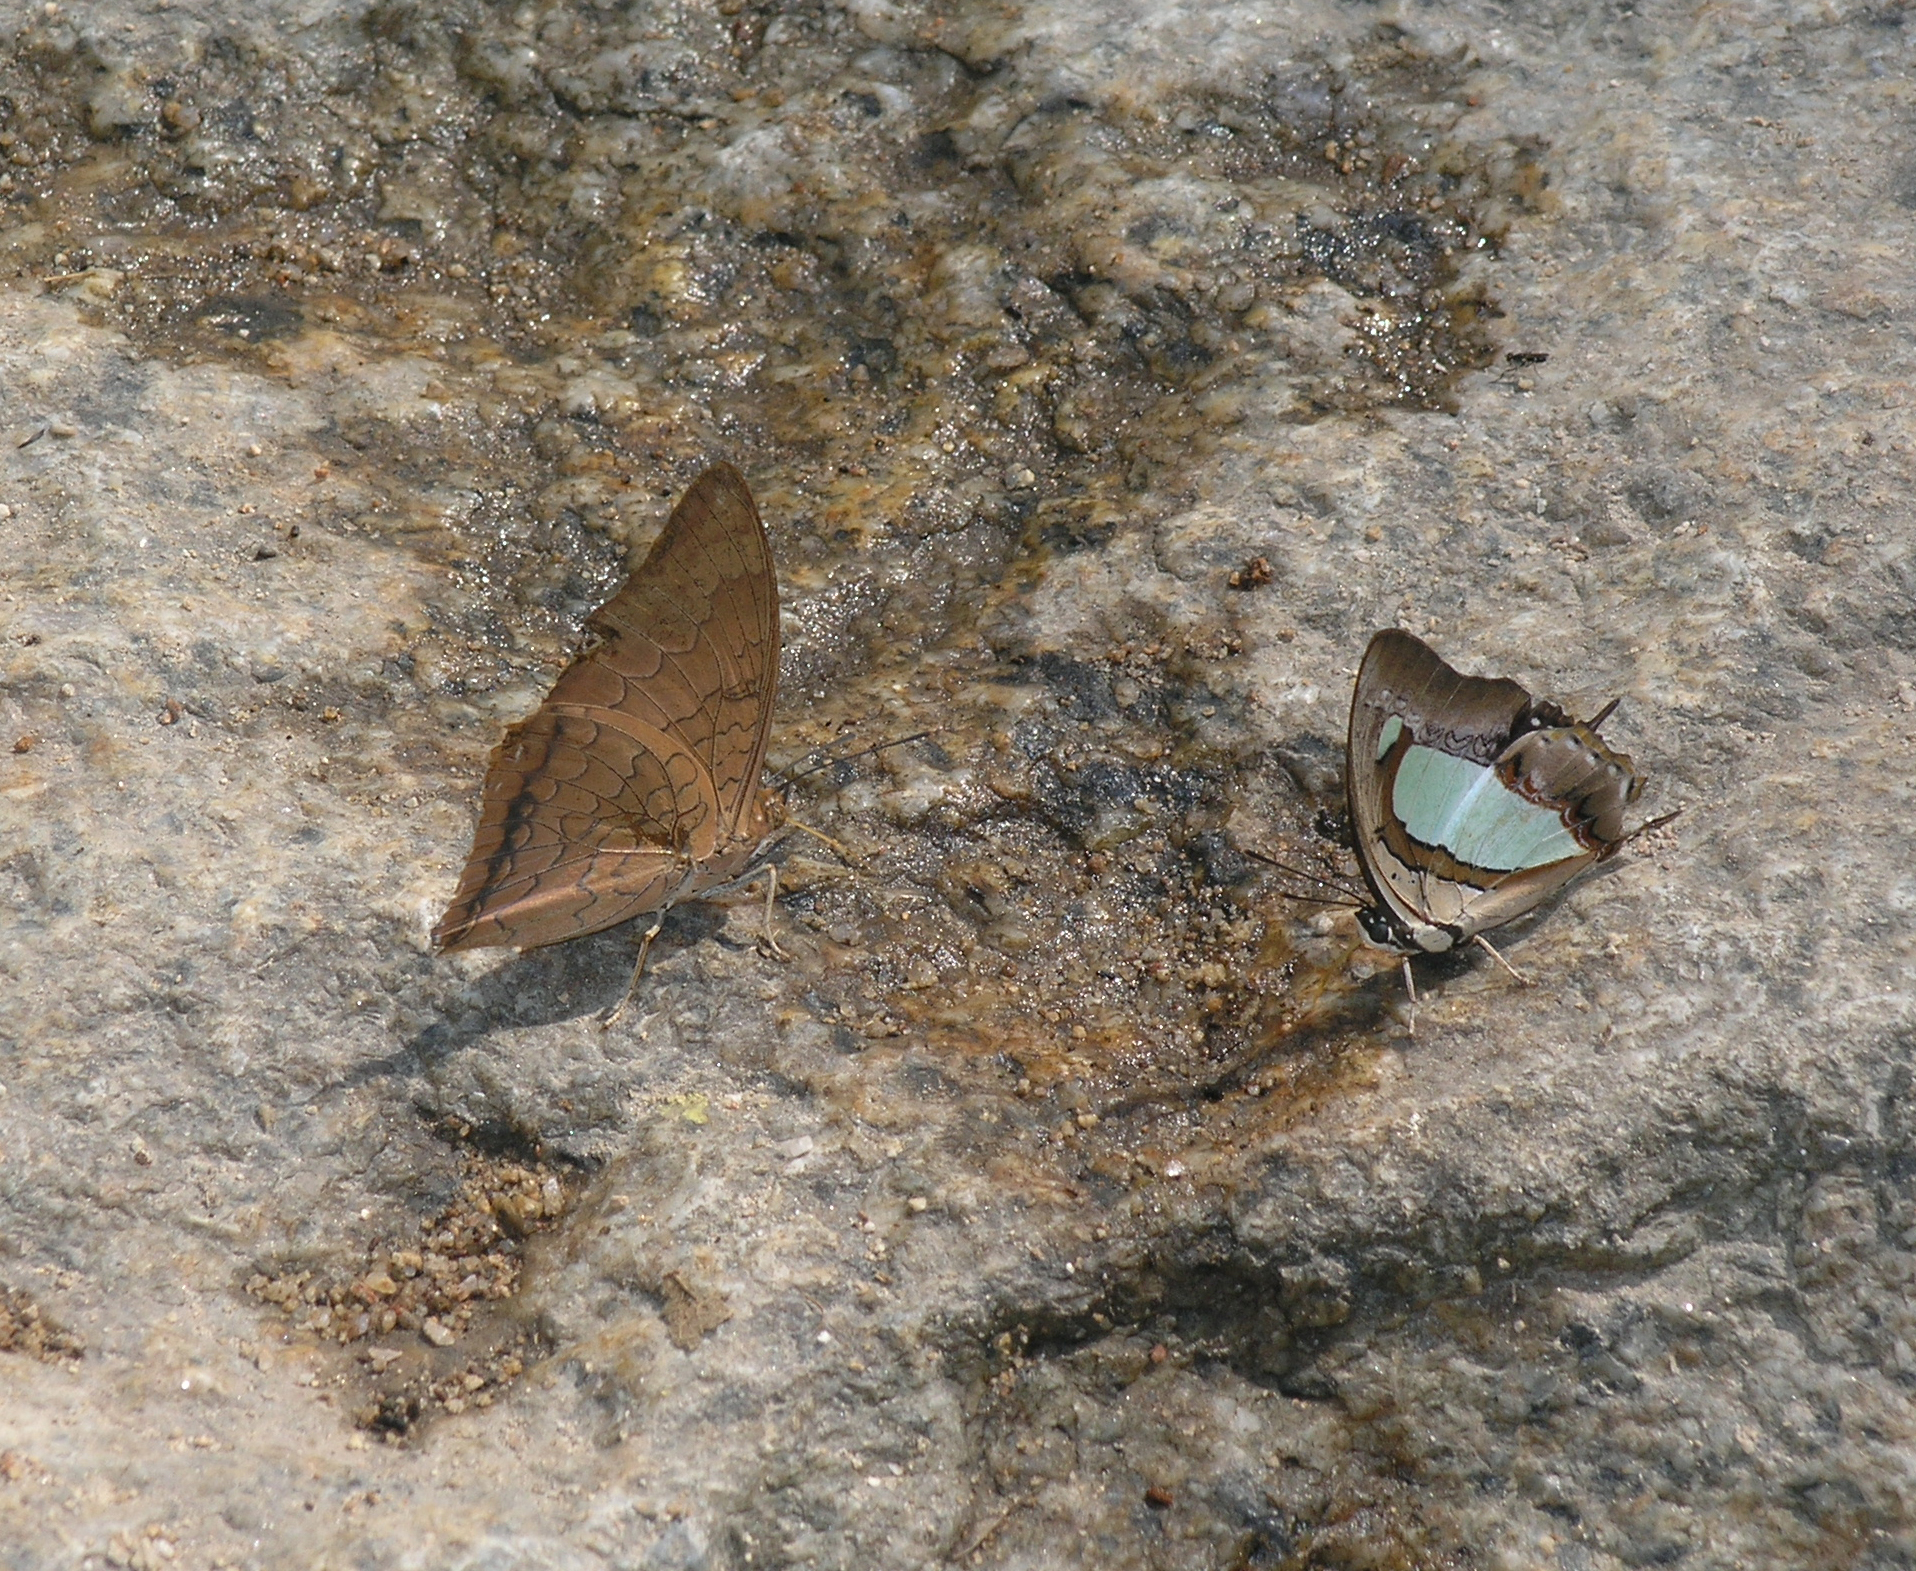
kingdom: Animalia
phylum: Arthropoda
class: Insecta
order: Lepidoptera
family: Nymphalidae
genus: Charaxes
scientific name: Charaxes bernardus
